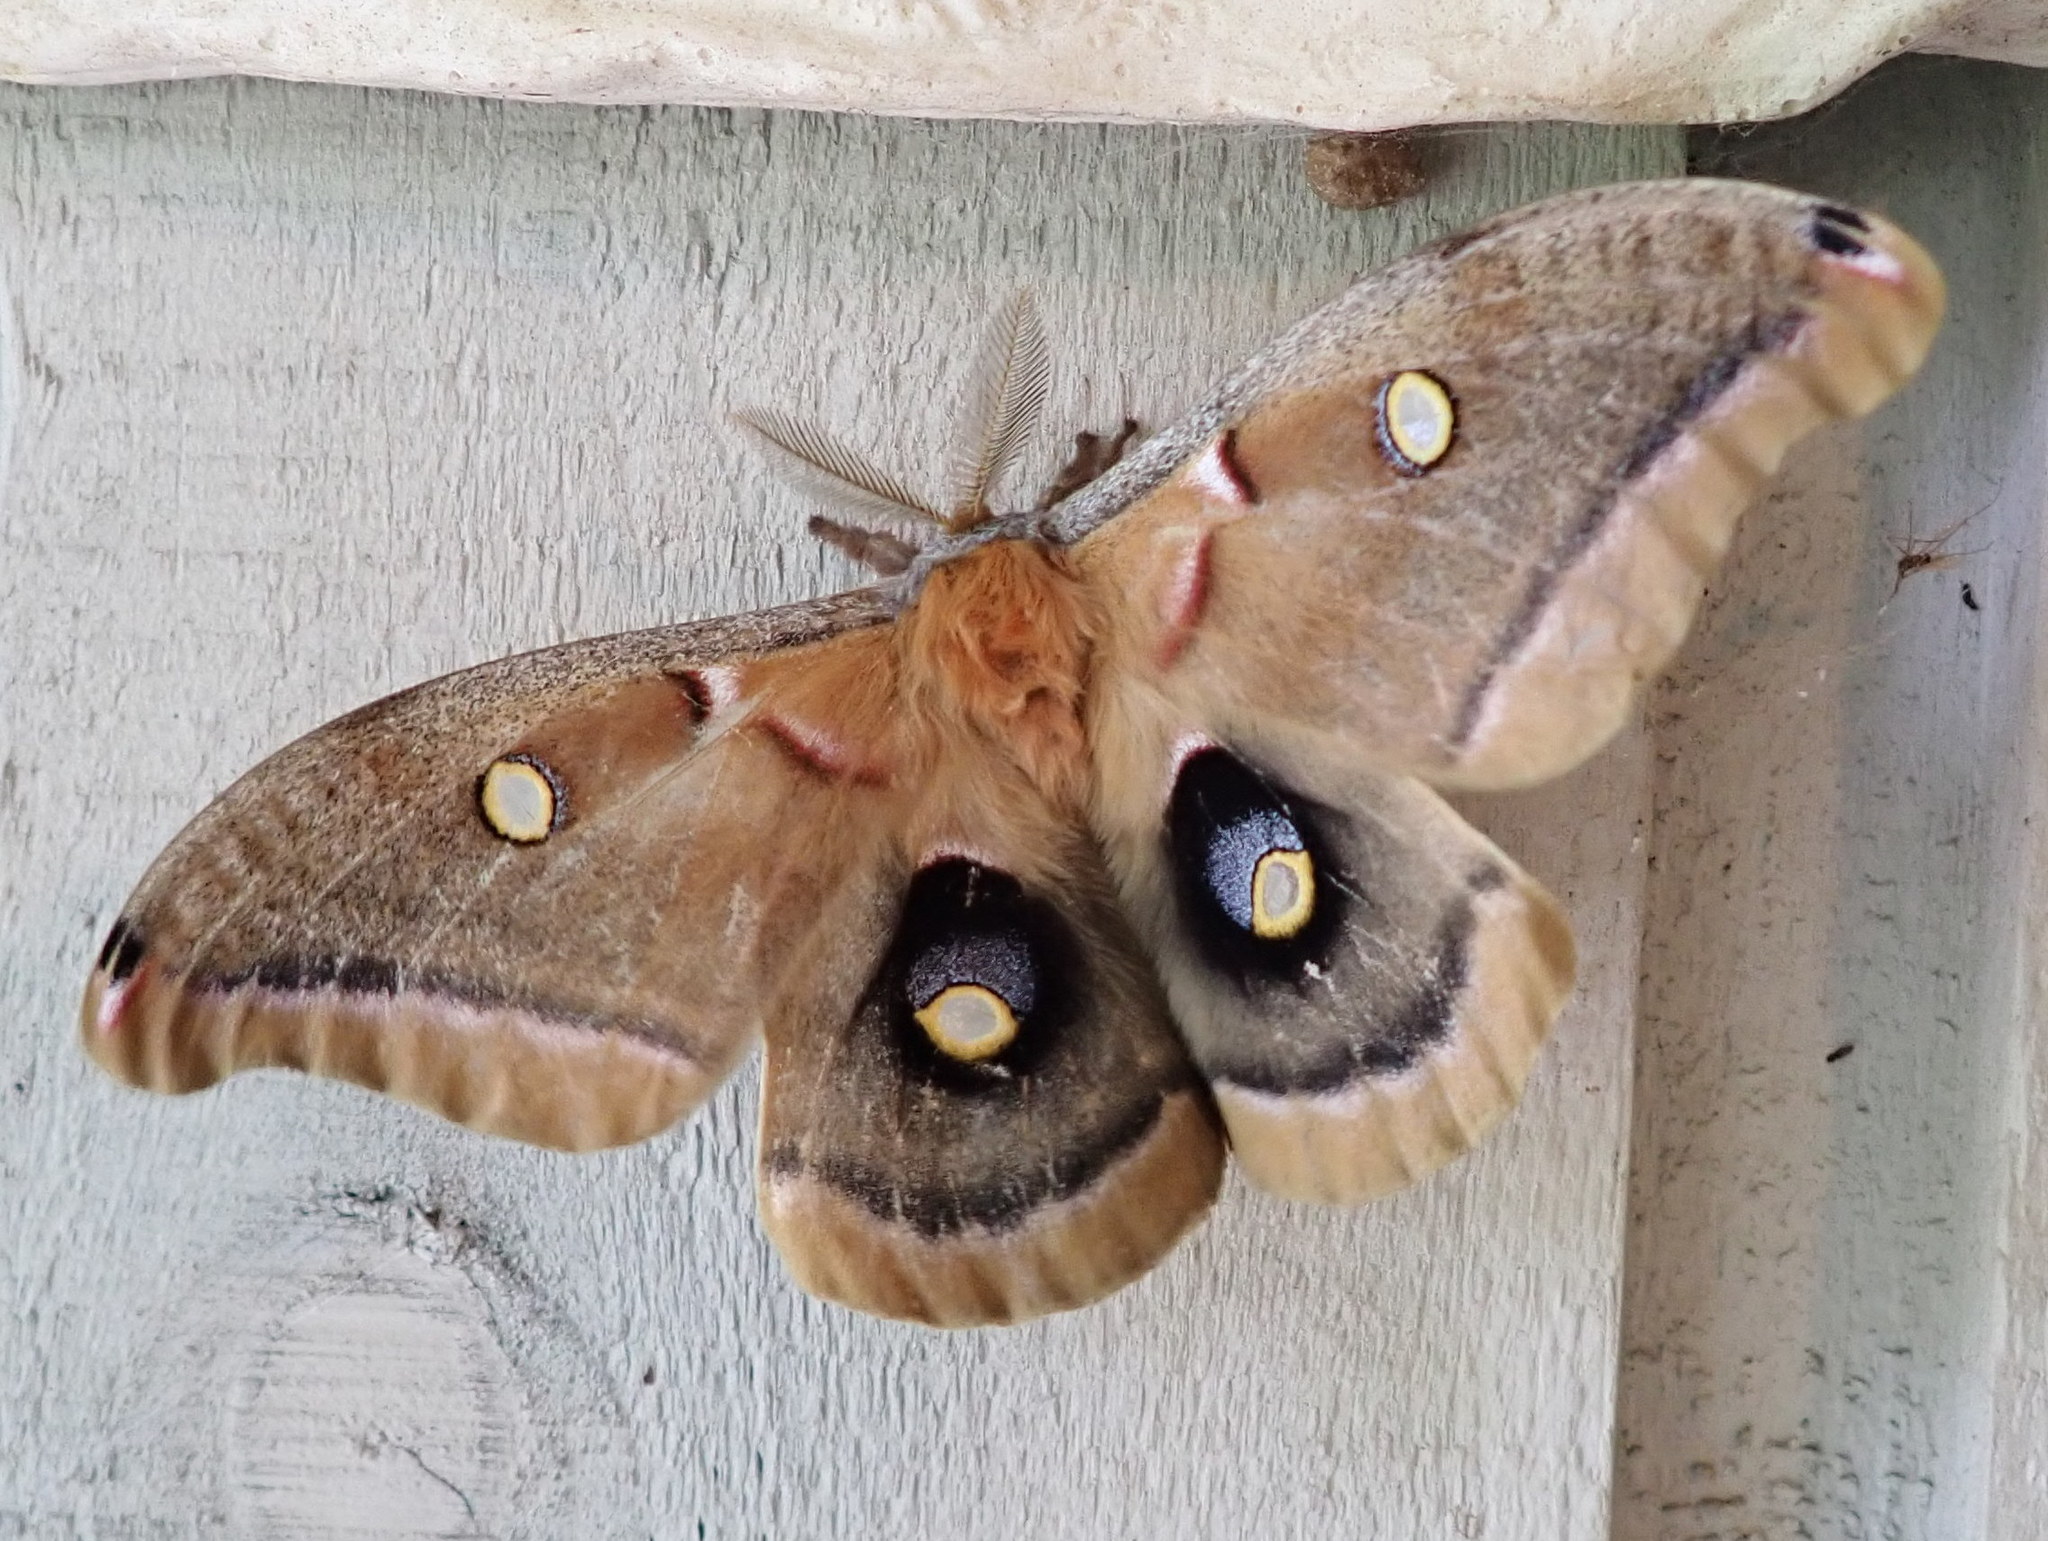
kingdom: Animalia
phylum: Arthropoda
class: Insecta
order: Lepidoptera
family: Saturniidae
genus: Antheraea
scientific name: Antheraea polyphemus
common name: Polyphemus moth
